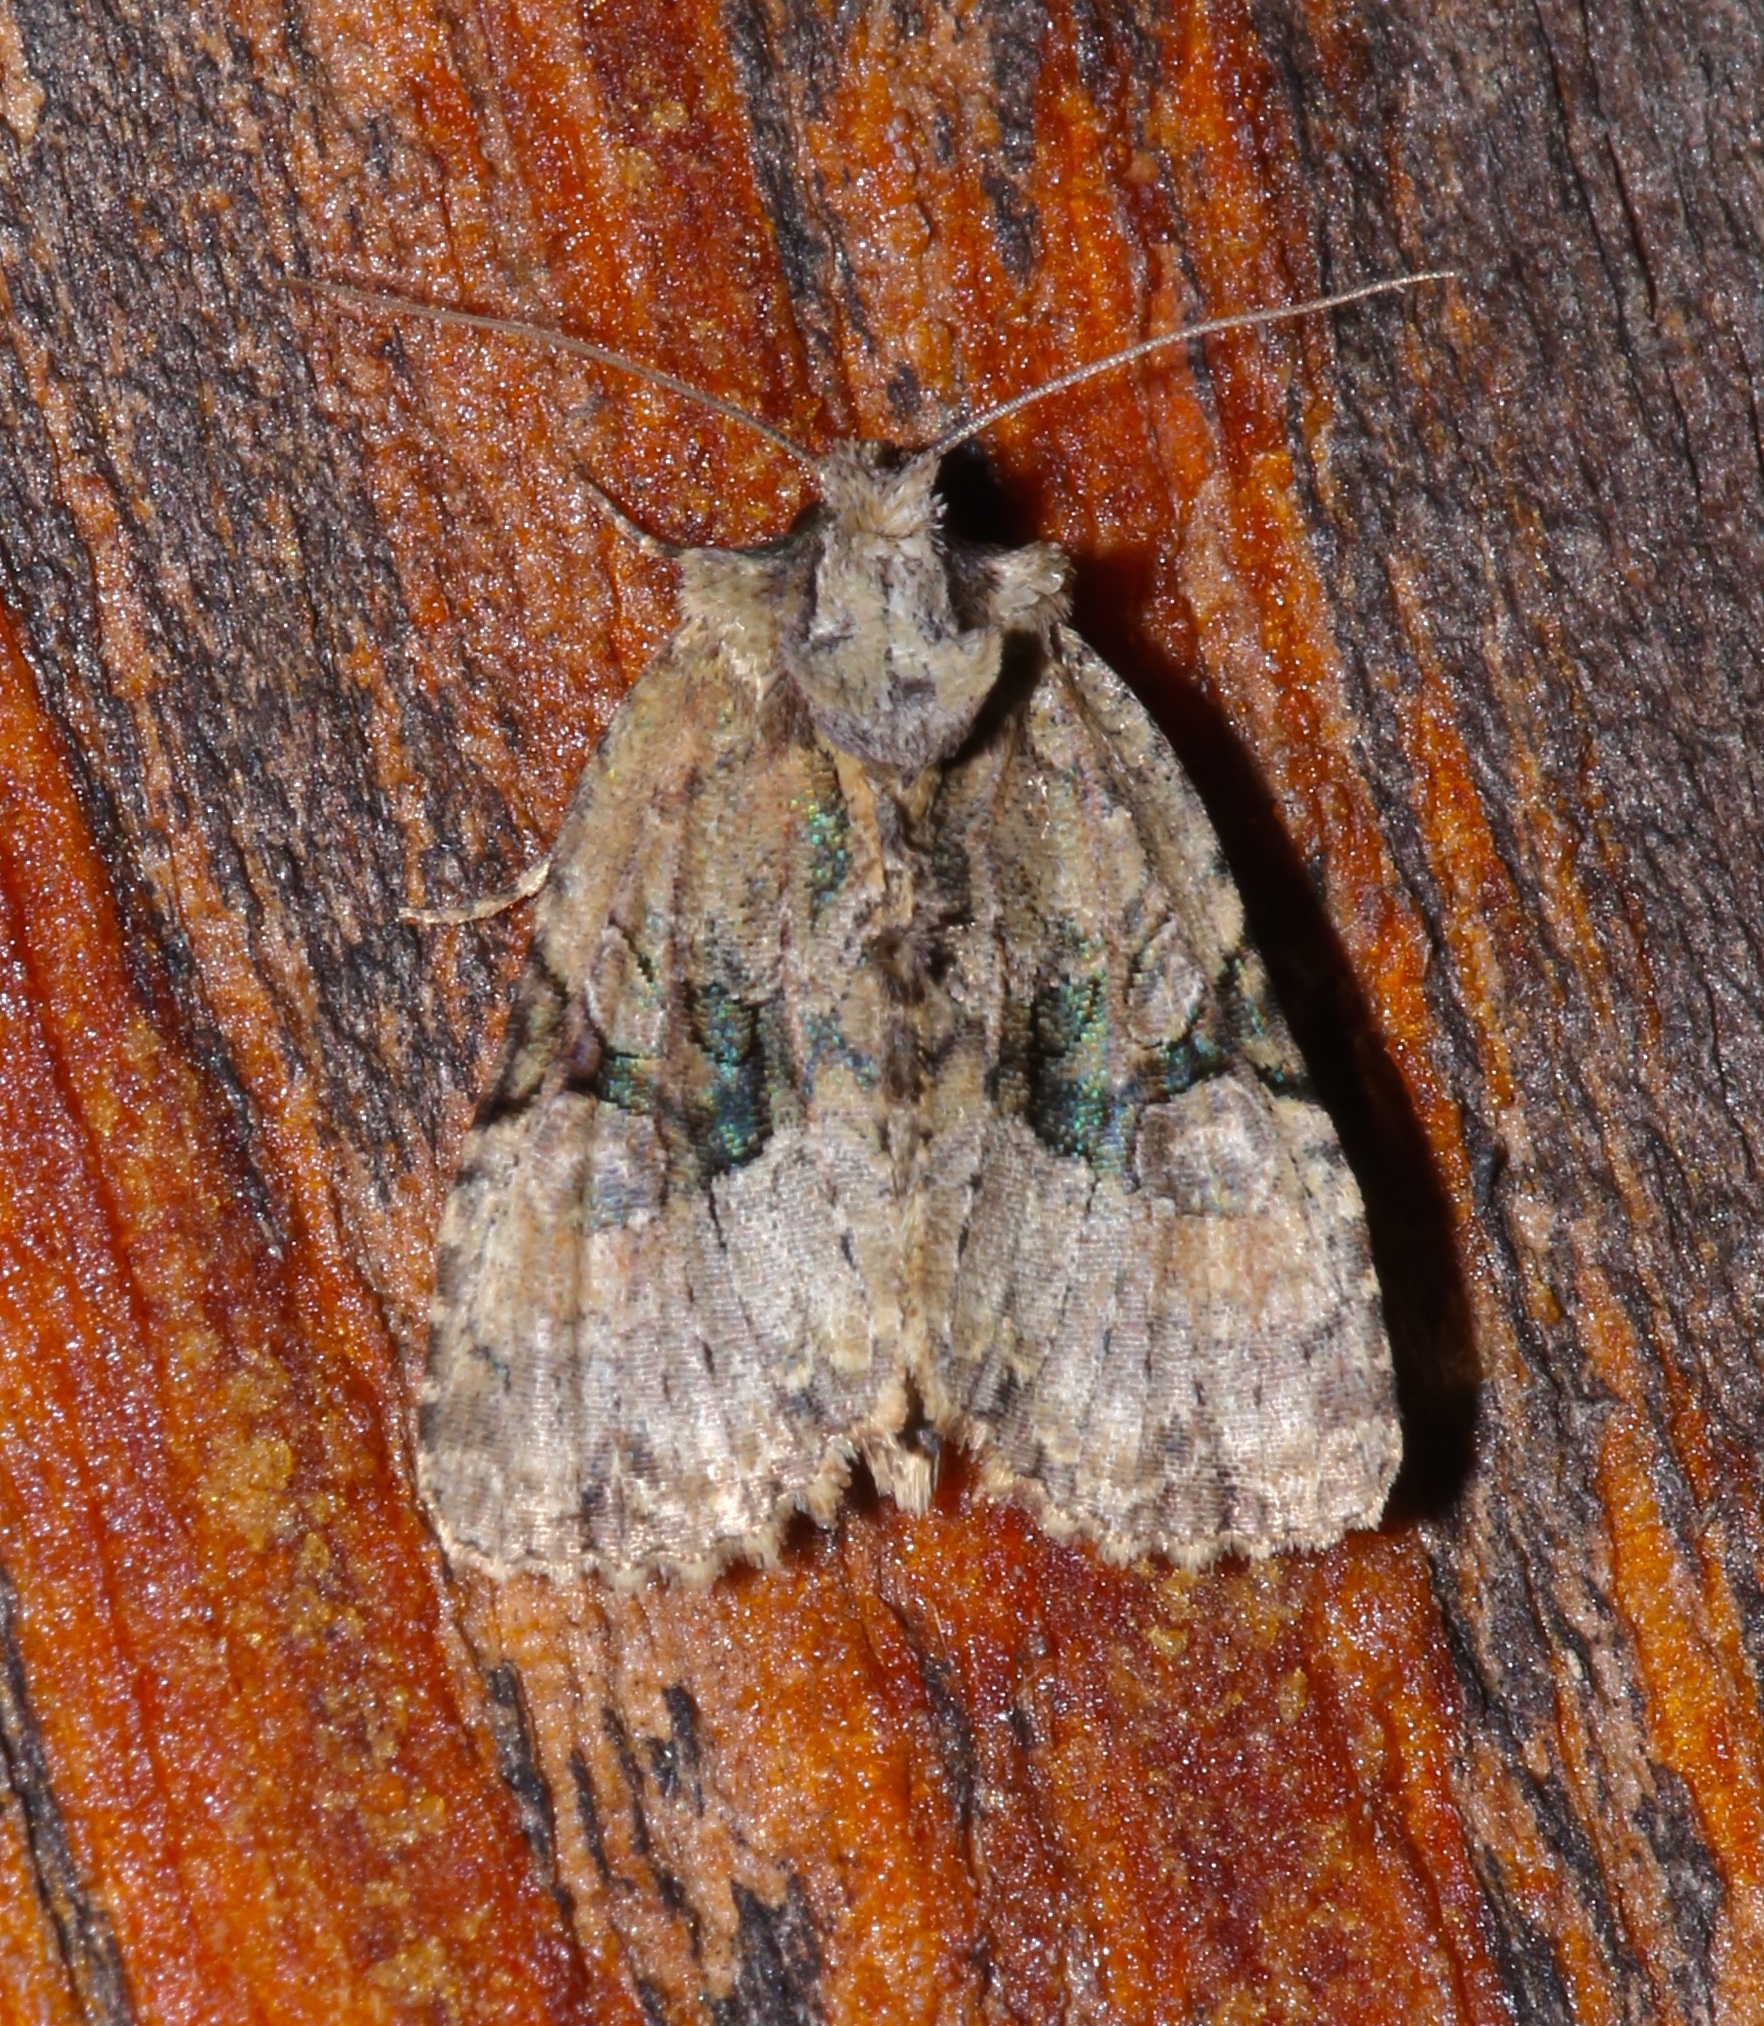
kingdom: Animalia
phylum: Arthropoda
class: Insecta
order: Lepidoptera
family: Noctuidae
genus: Oligia
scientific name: Oligia modica
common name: Black-banded brocade
